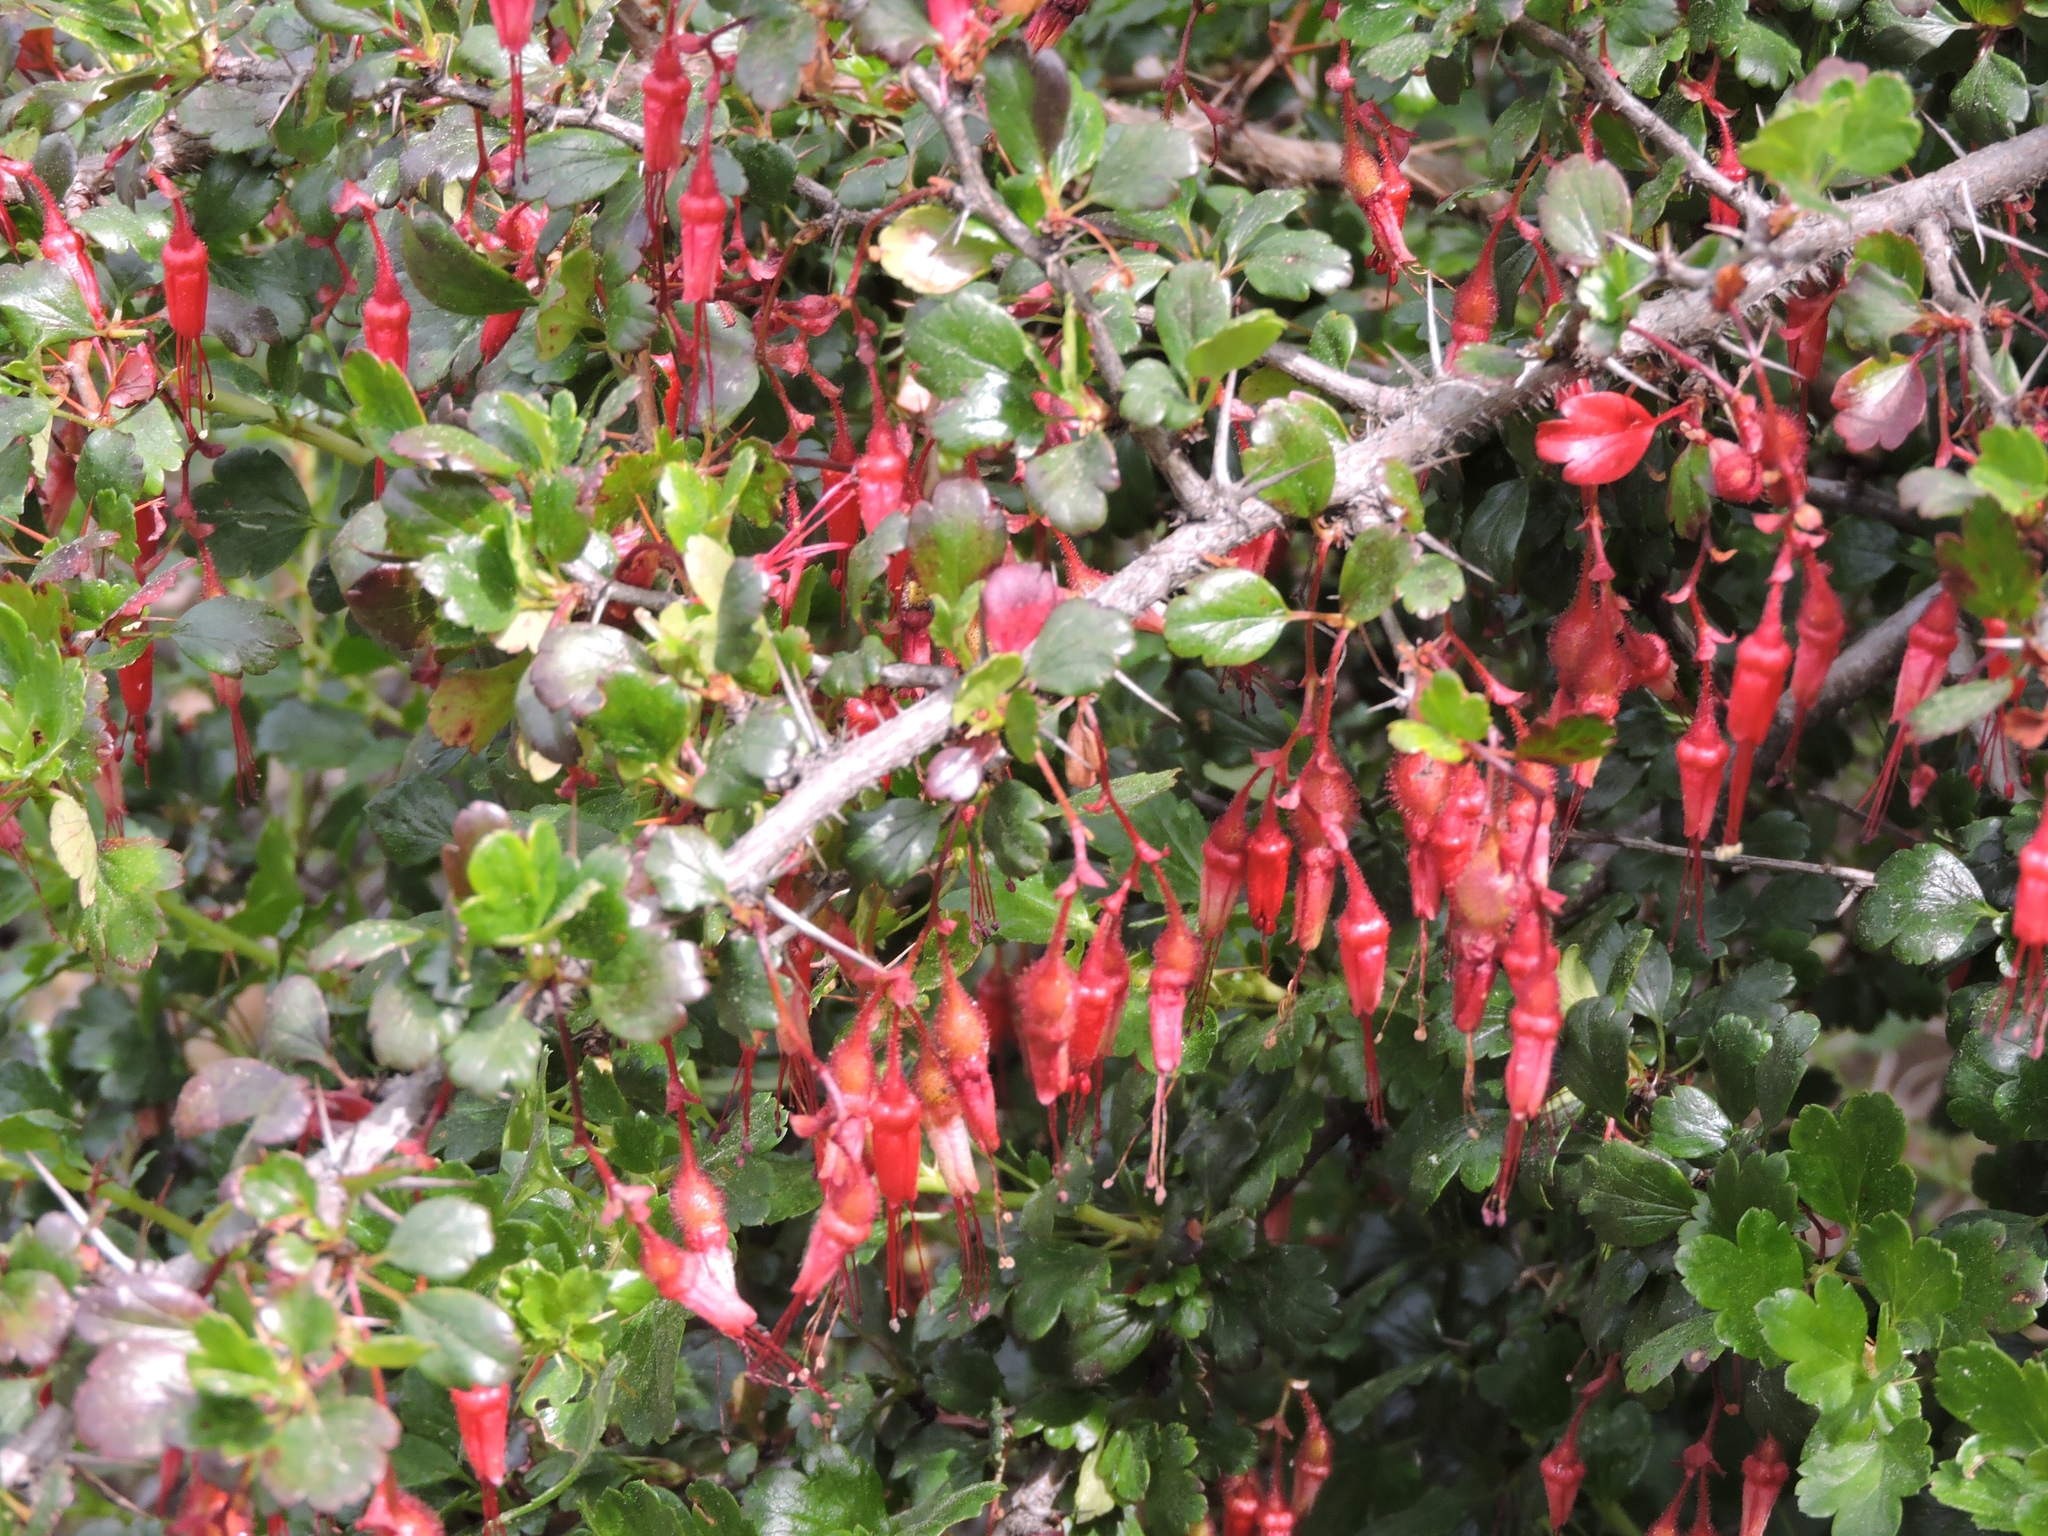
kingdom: Plantae
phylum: Tracheophyta
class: Magnoliopsida
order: Saxifragales
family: Grossulariaceae
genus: Ribes
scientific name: Ribes speciosum
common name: Fuchsia-flower gooseberry
